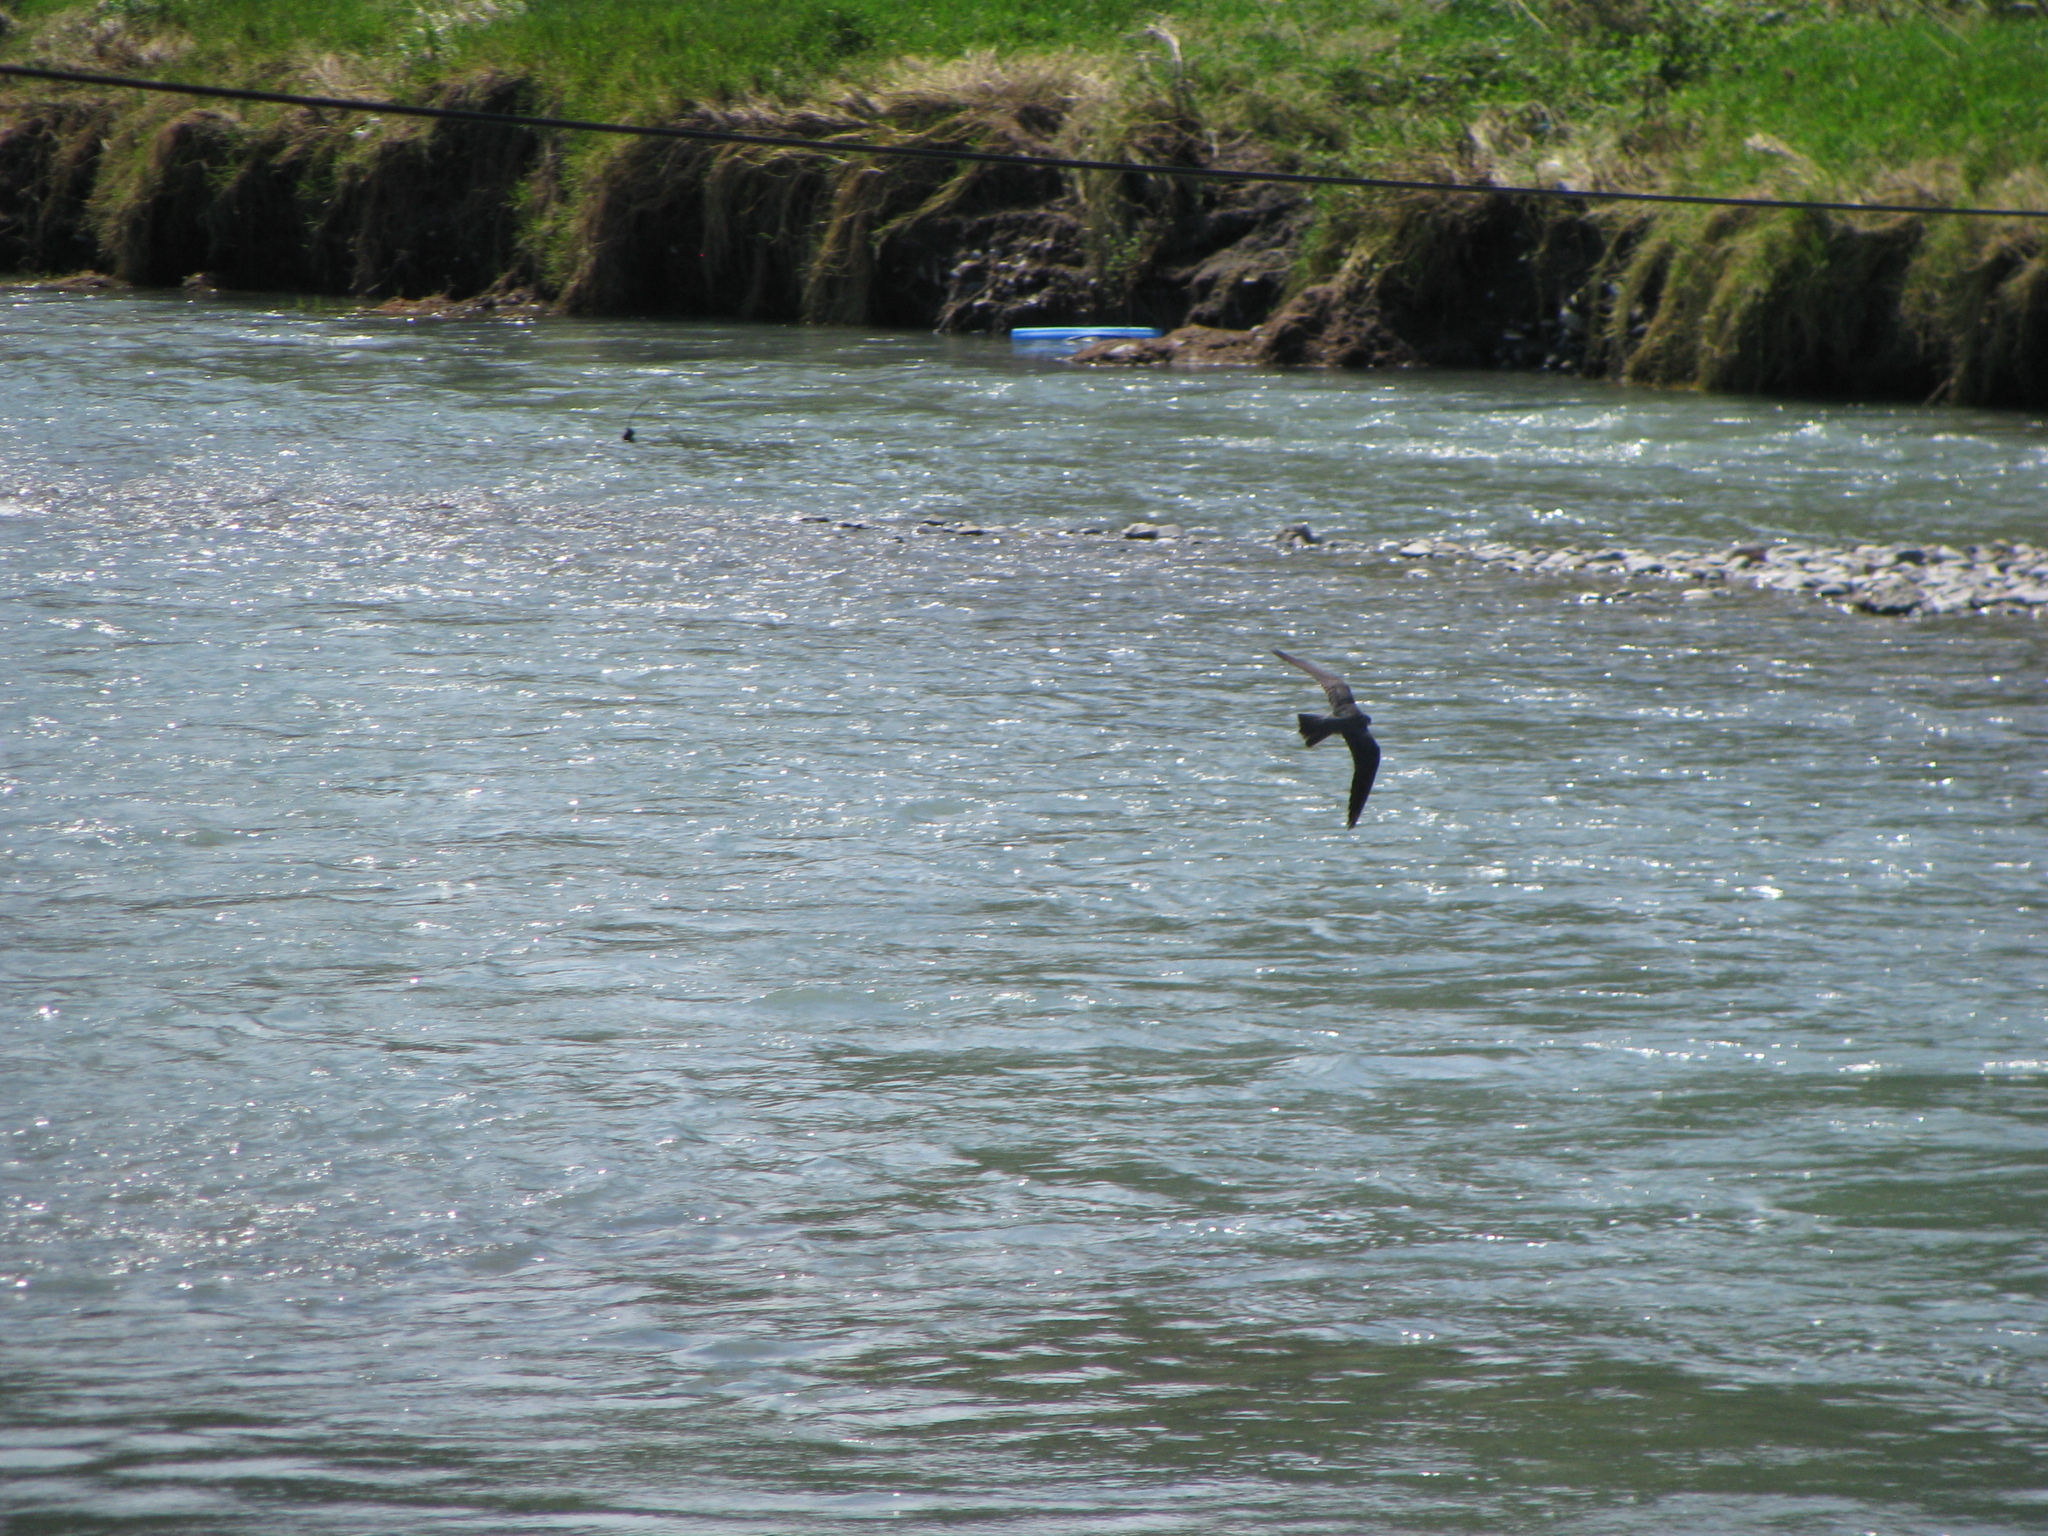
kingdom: Animalia
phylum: Chordata
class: Aves
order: Falconiformes
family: Falconidae
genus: Falco
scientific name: Falco subbuteo
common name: Eurasian hobby
